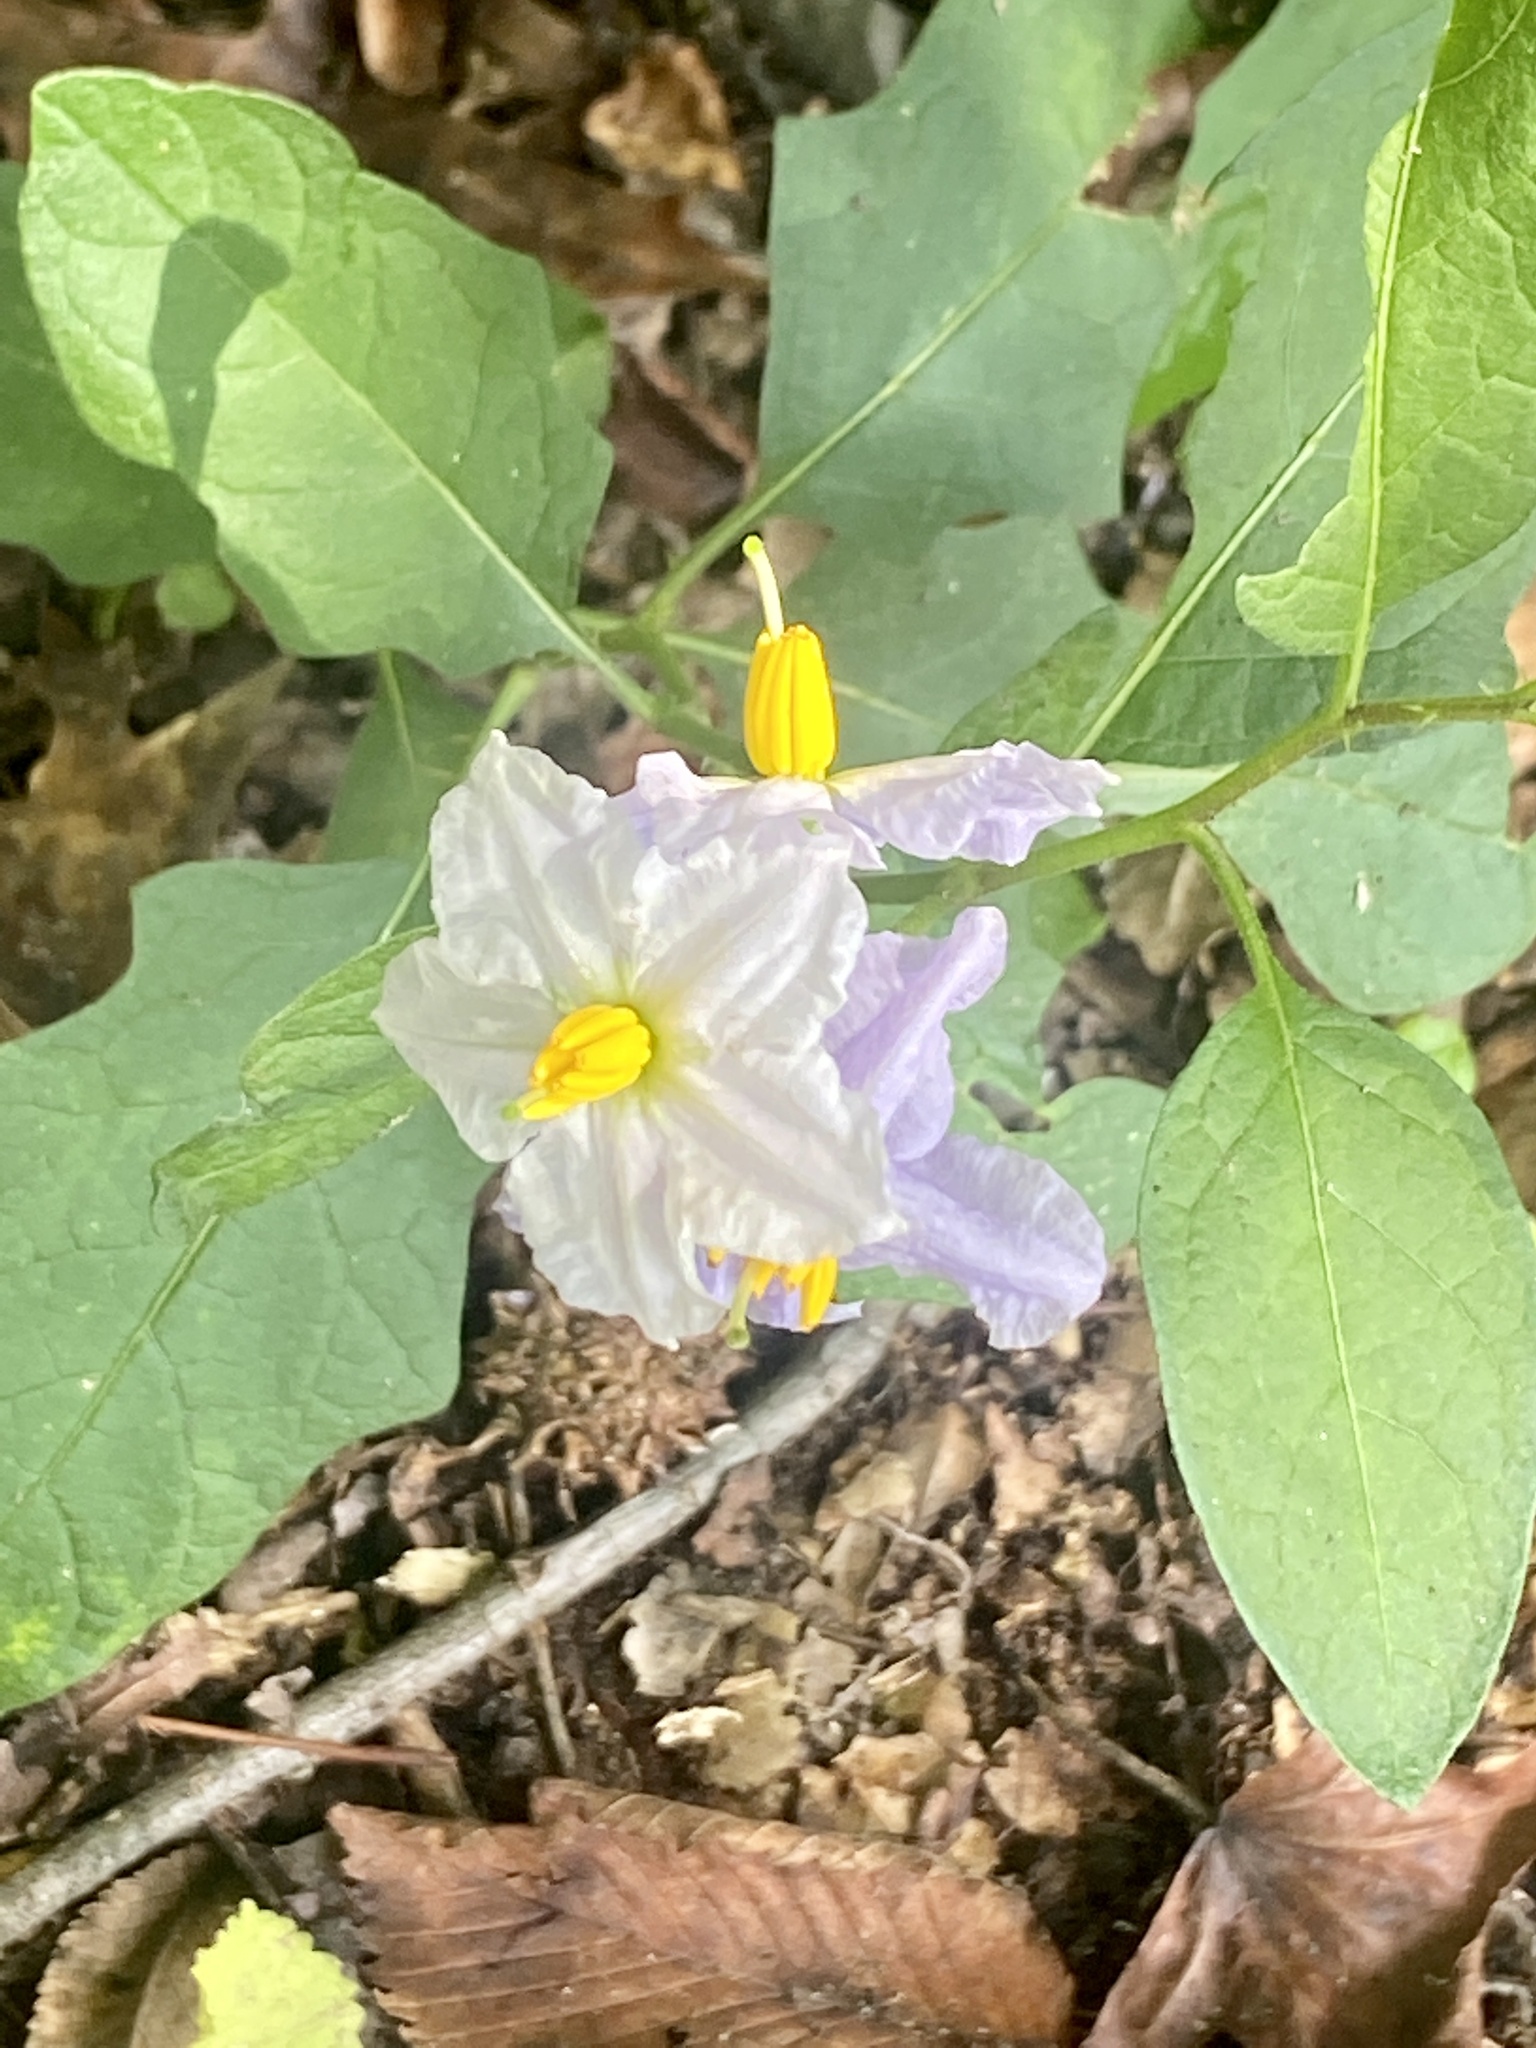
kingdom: Plantae
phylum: Tracheophyta
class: Magnoliopsida
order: Solanales
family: Solanaceae
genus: Solanum
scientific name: Solanum carolinense
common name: Horse-nettle
